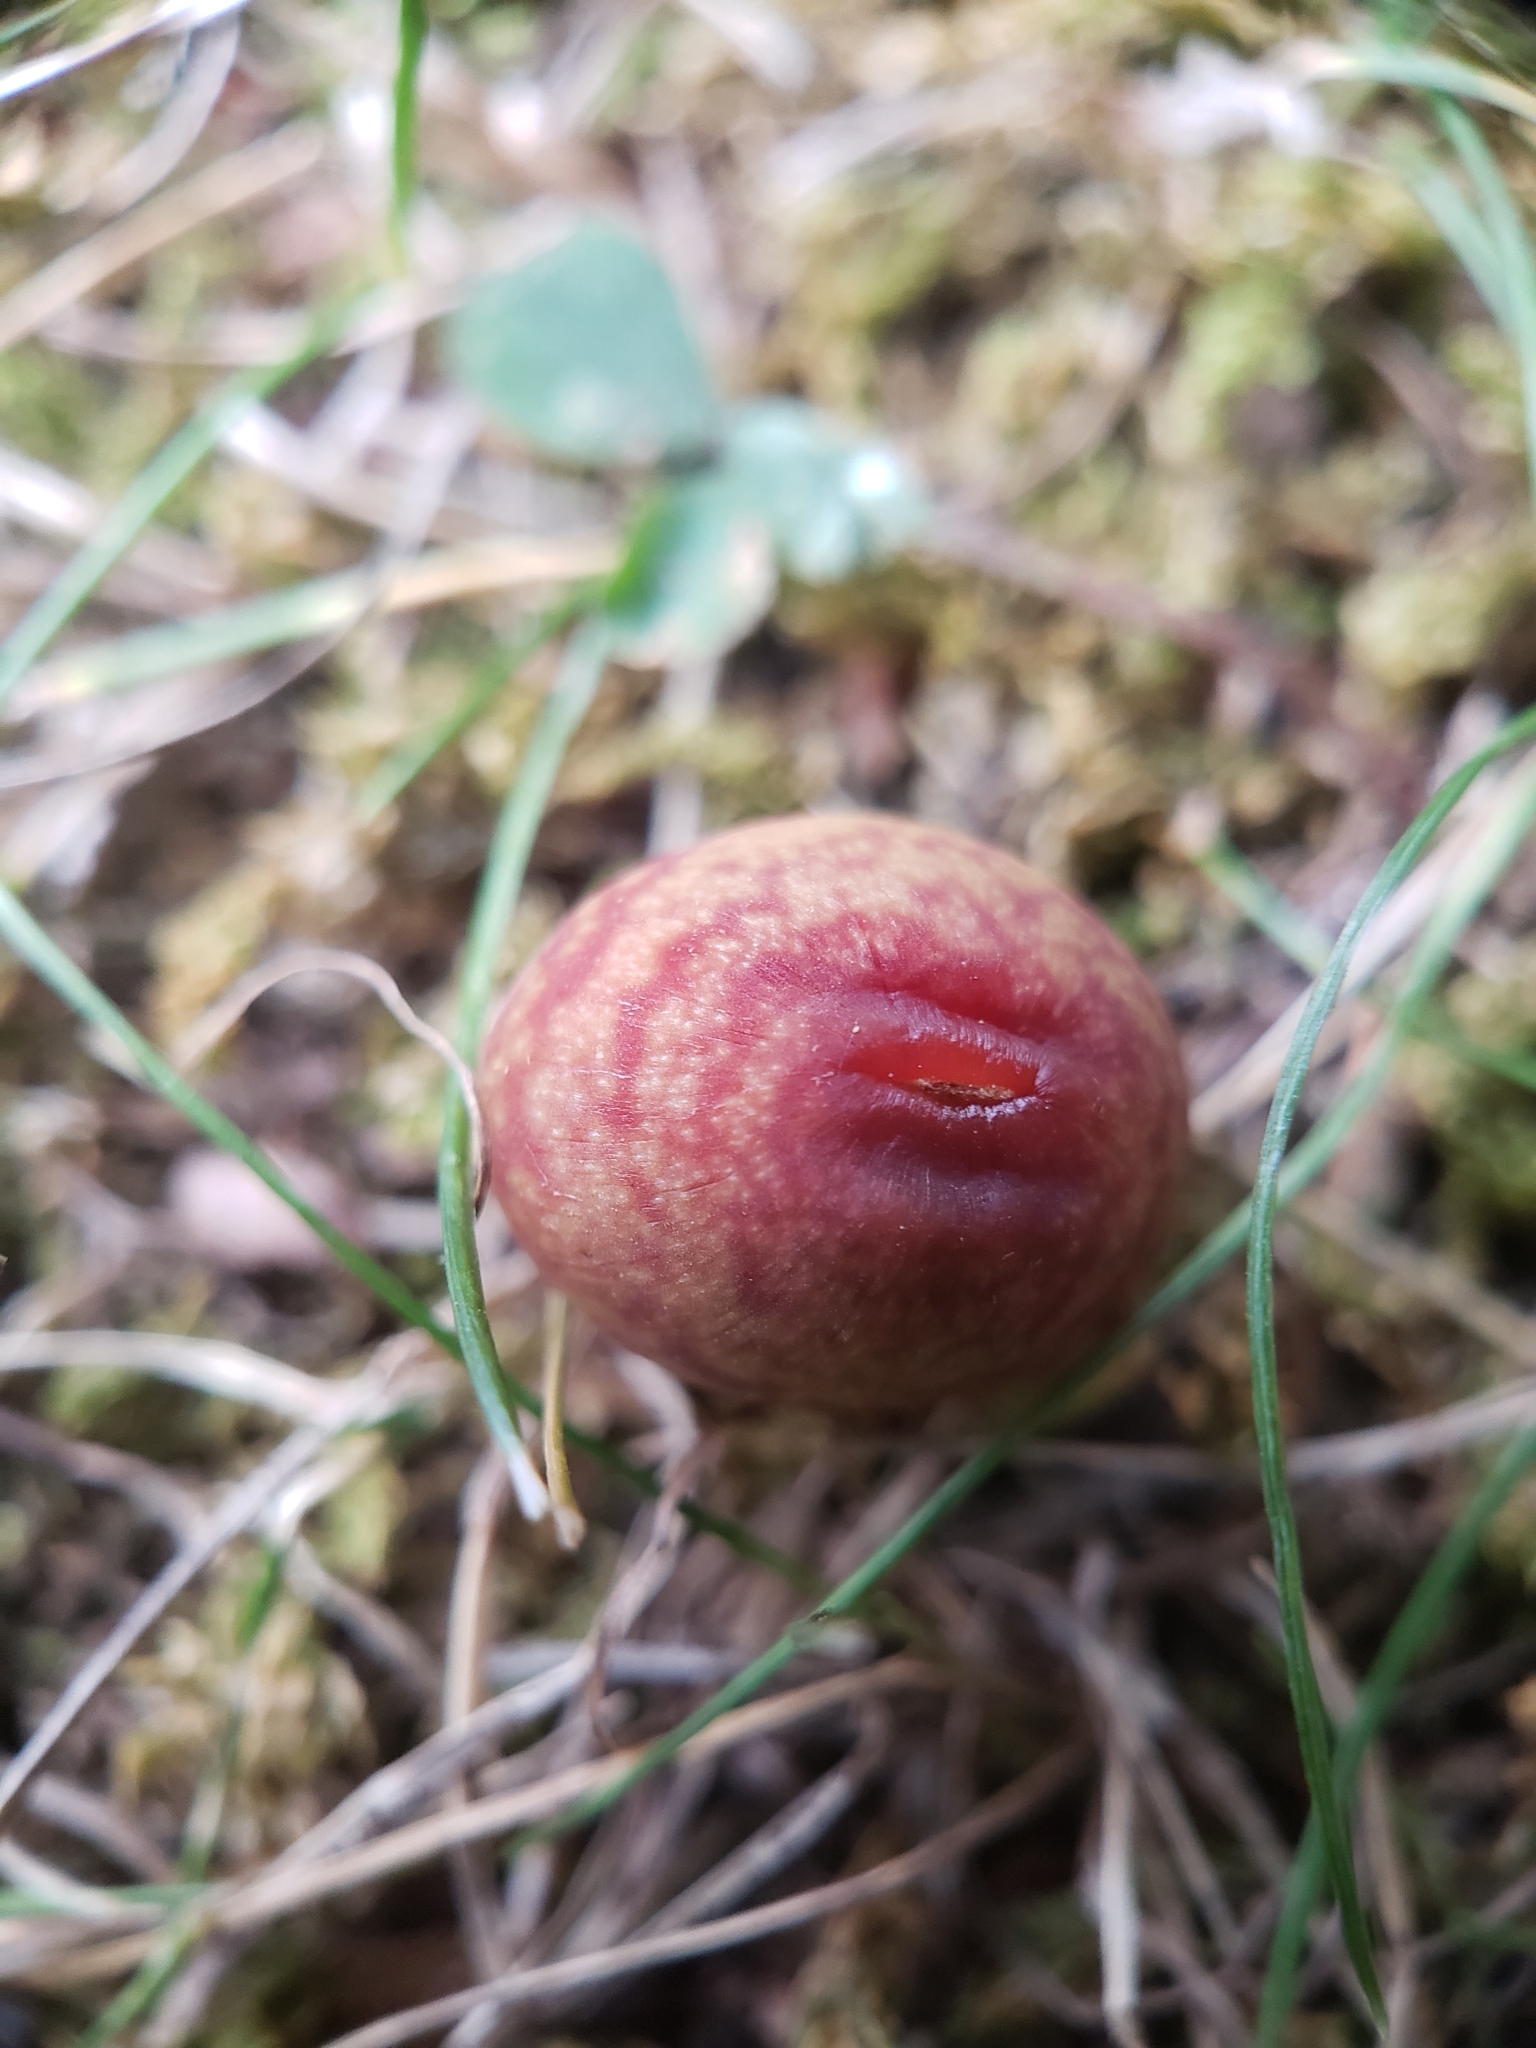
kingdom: Animalia
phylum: Arthropoda
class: Insecta
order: Hymenoptera
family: Cynipidae
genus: Kokkocynips
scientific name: Kokkocynips imbricariae
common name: Banded bullet gall wasp
